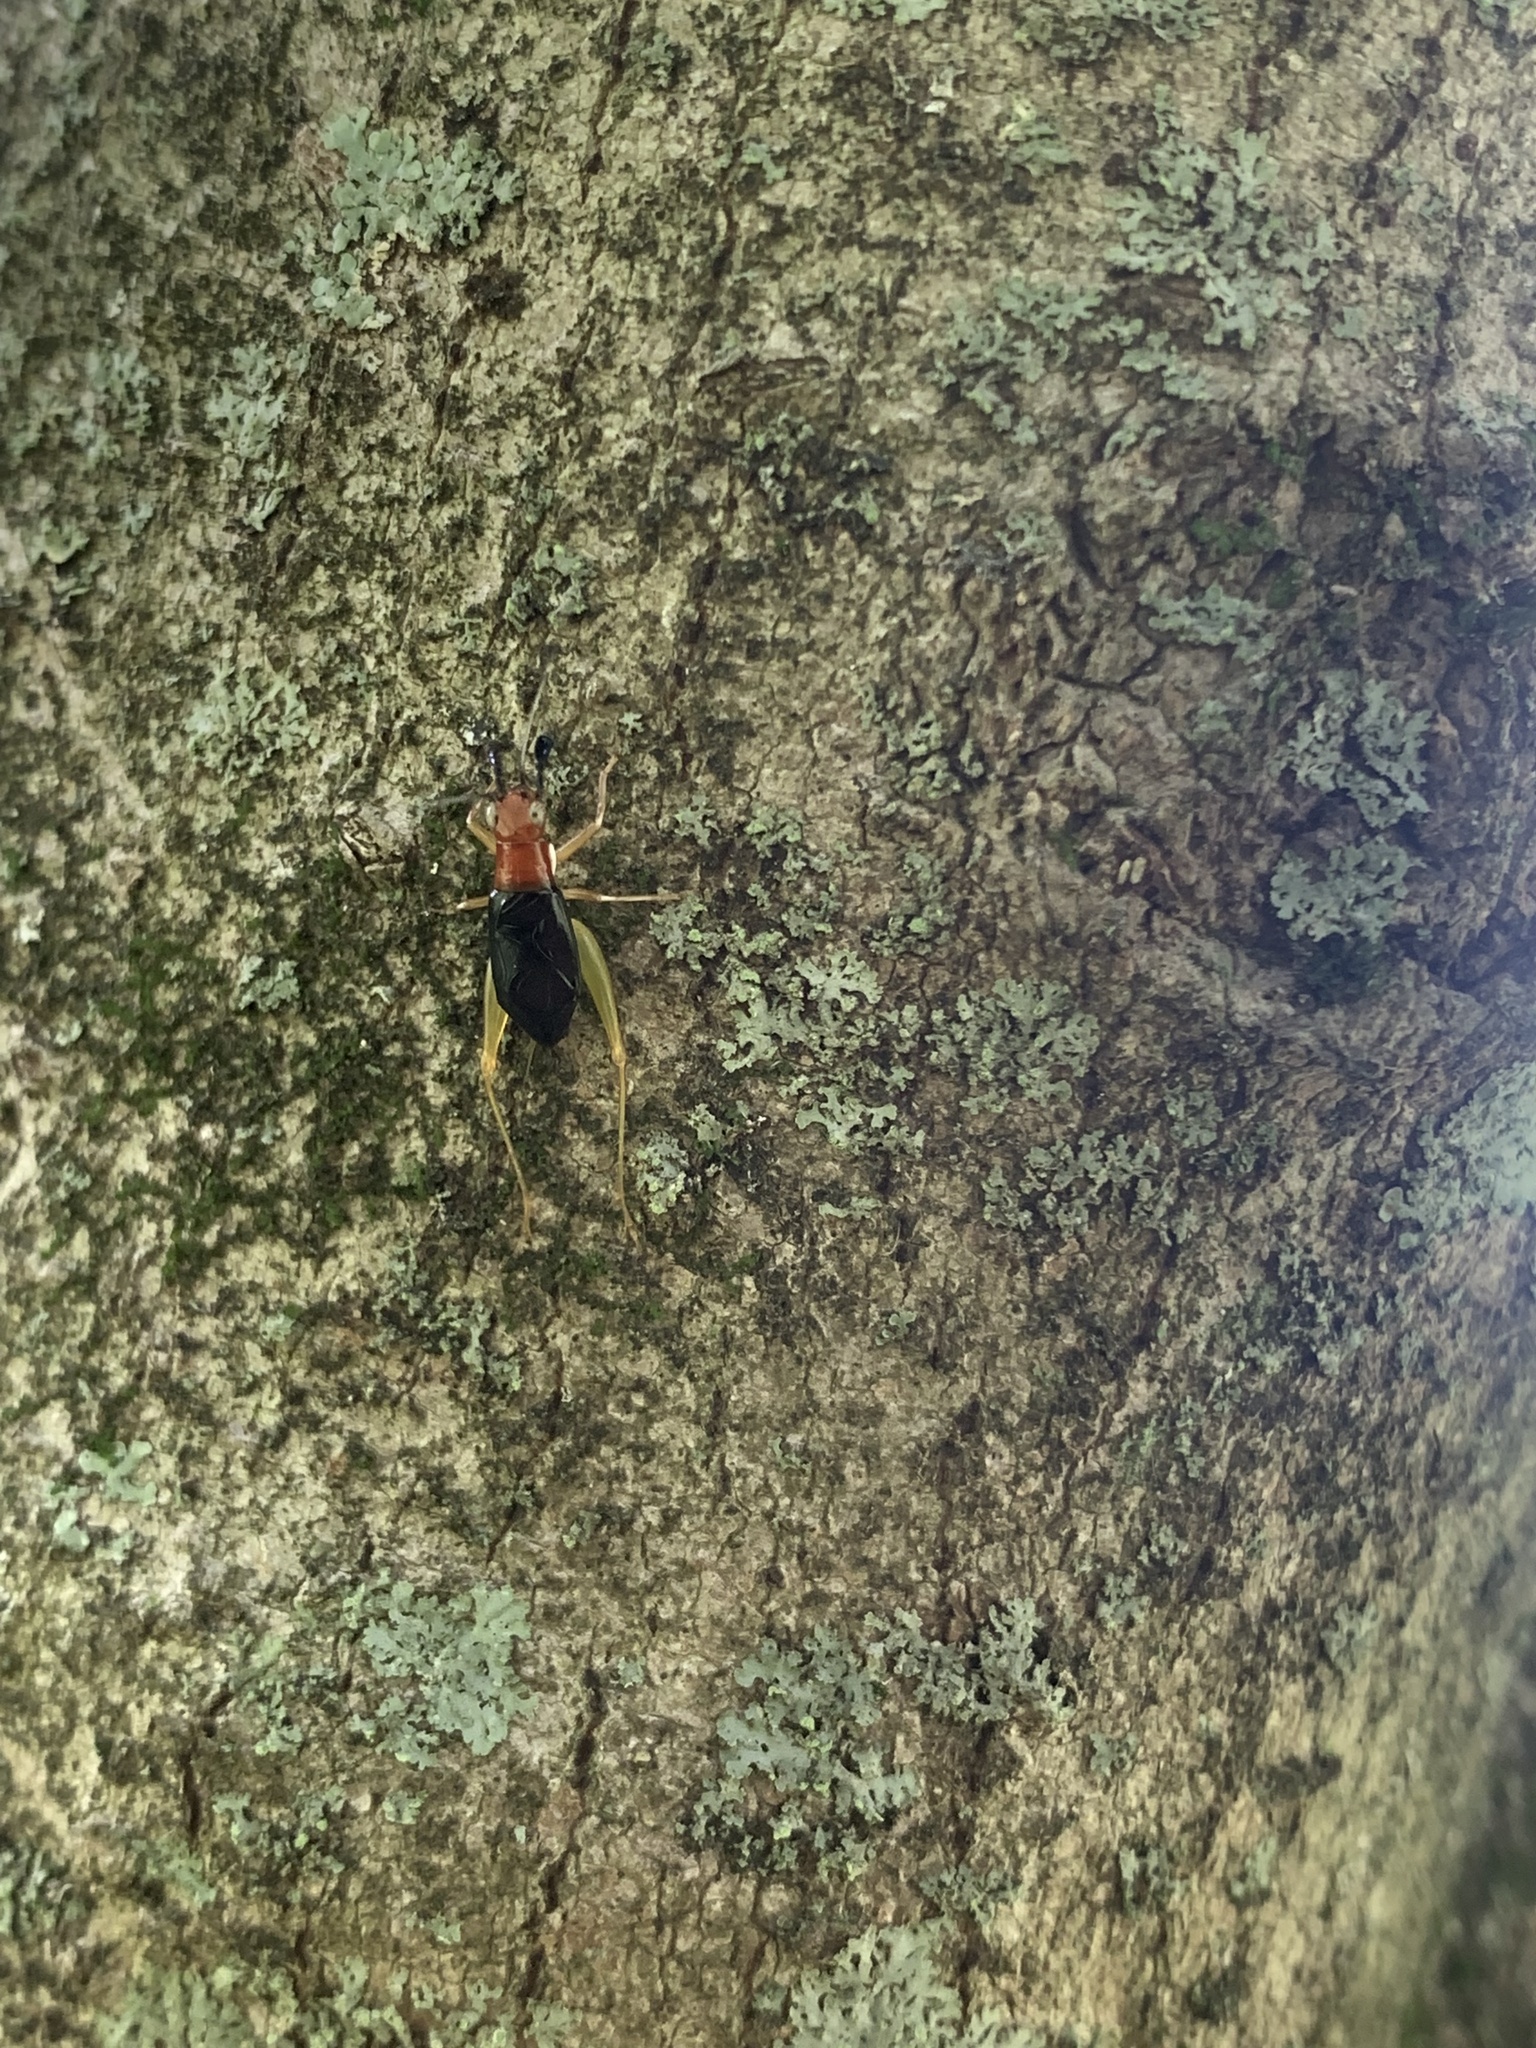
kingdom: Animalia
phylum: Arthropoda
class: Insecta
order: Orthoptera
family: Trigonidiidae
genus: Phyllopalpus
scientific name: Phyllopalpus pulchellus
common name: Handsome trig
